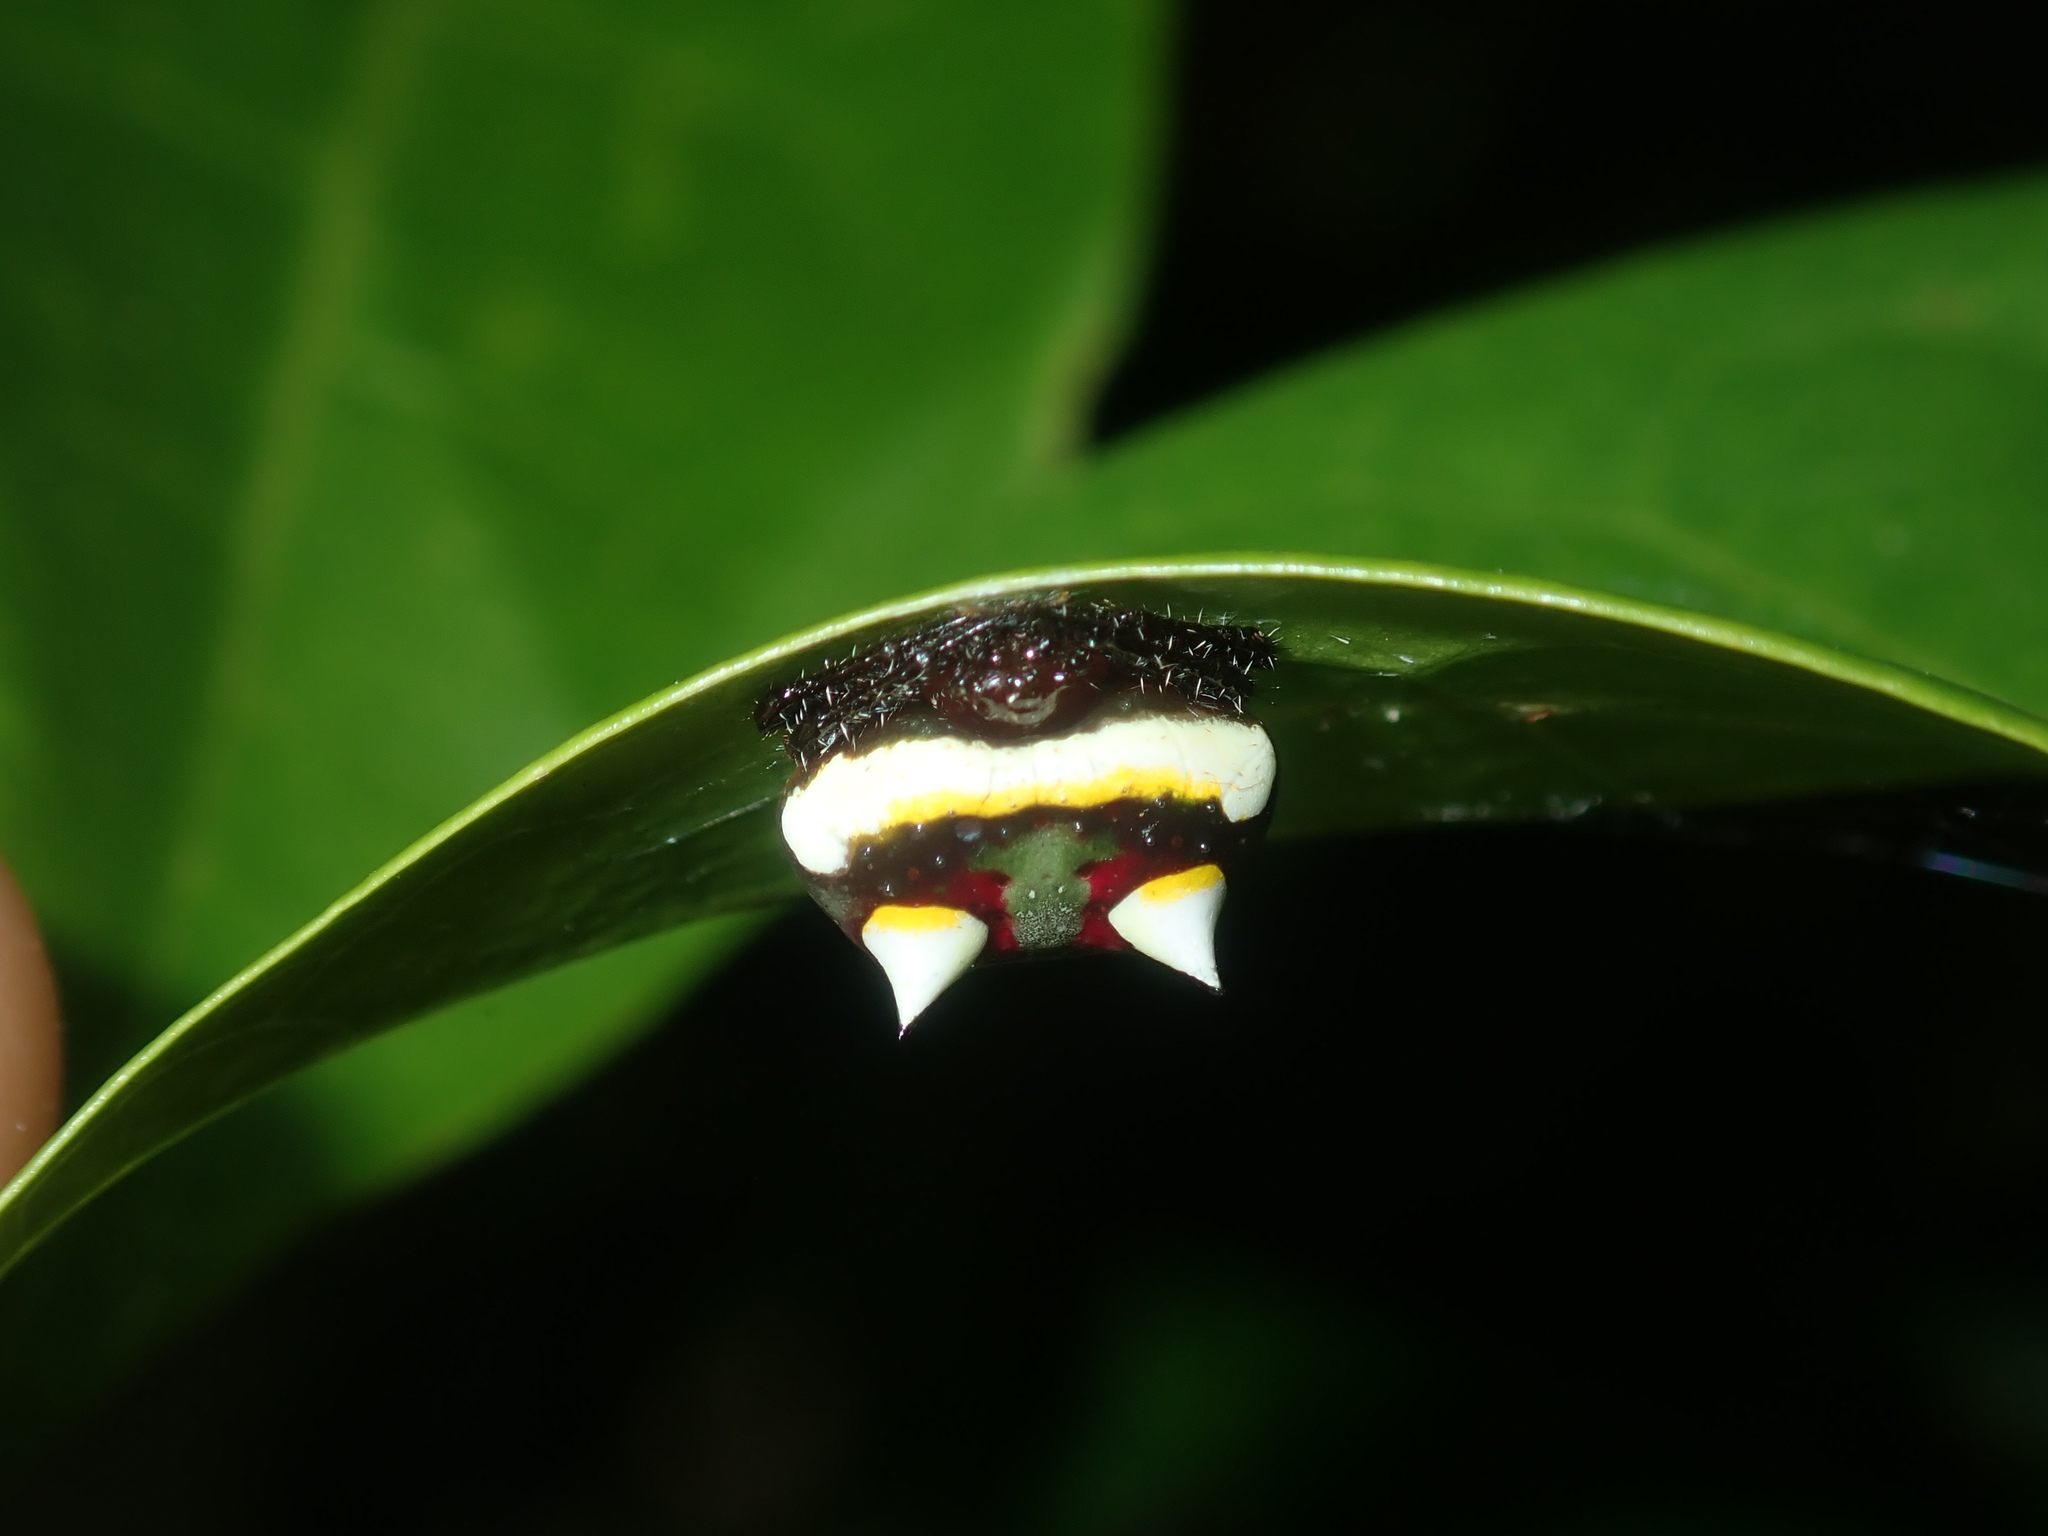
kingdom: Animalia
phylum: Arthropoda
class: Arachnida
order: Araneae
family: Araneidae
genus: Poecilopachys
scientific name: Poecilopachys australasia
